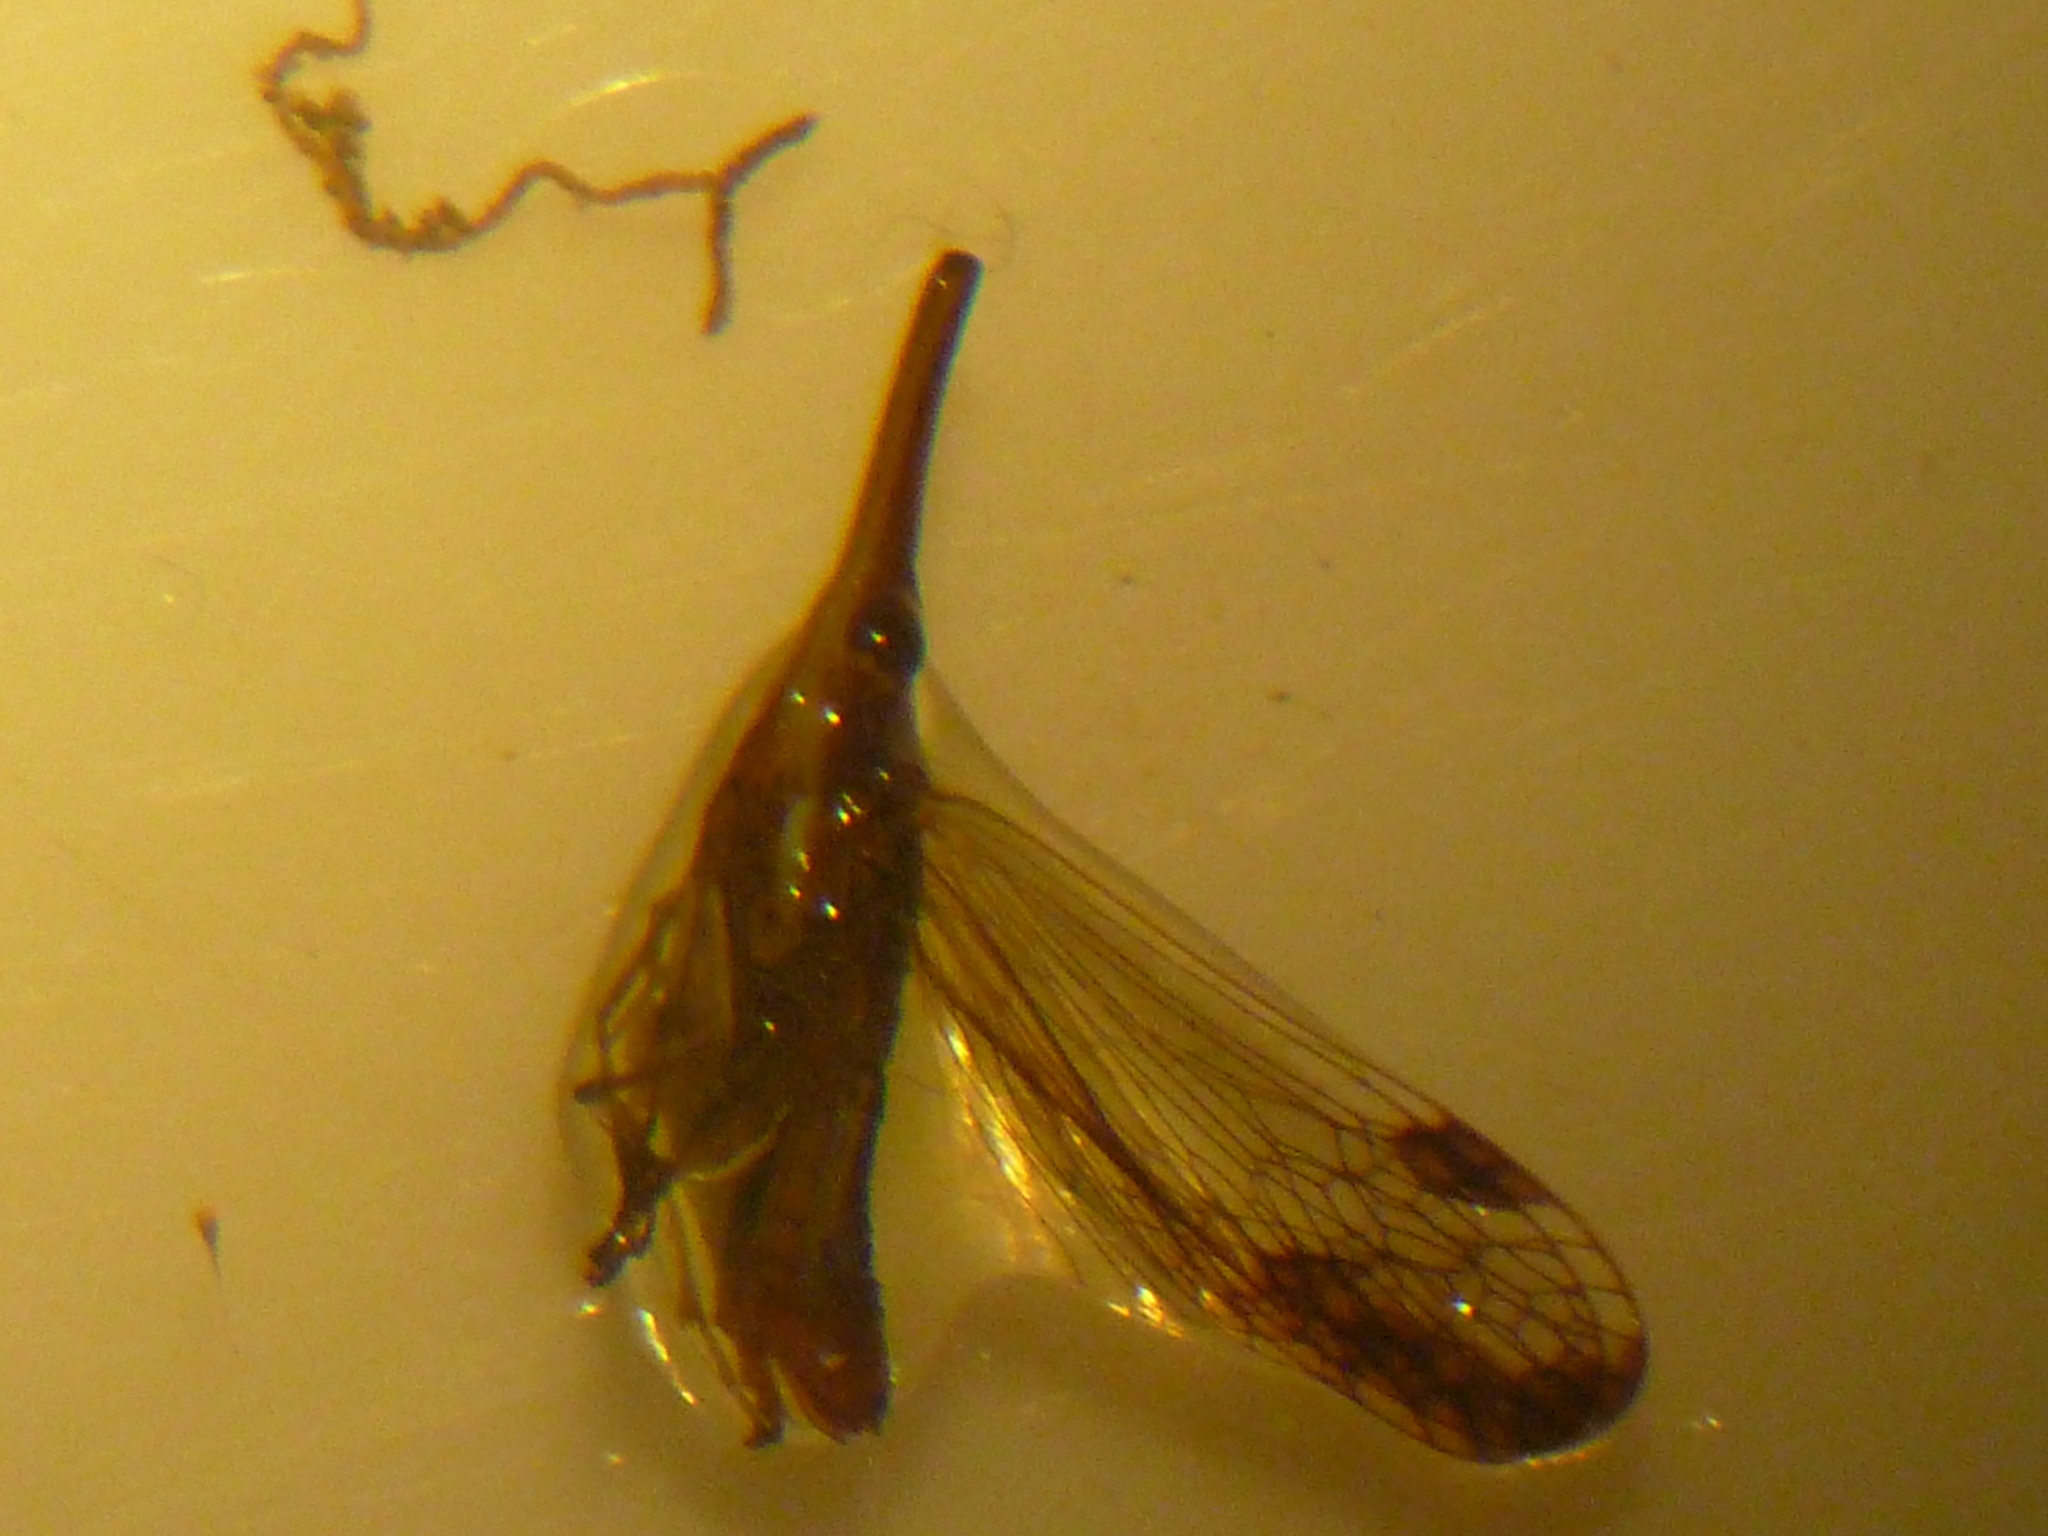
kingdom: Animalia
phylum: Arthropoda
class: Insecta
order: Hemiptera
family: Dictyopharidae
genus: Thanatodictya
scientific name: Thanatodictya tillyardi
